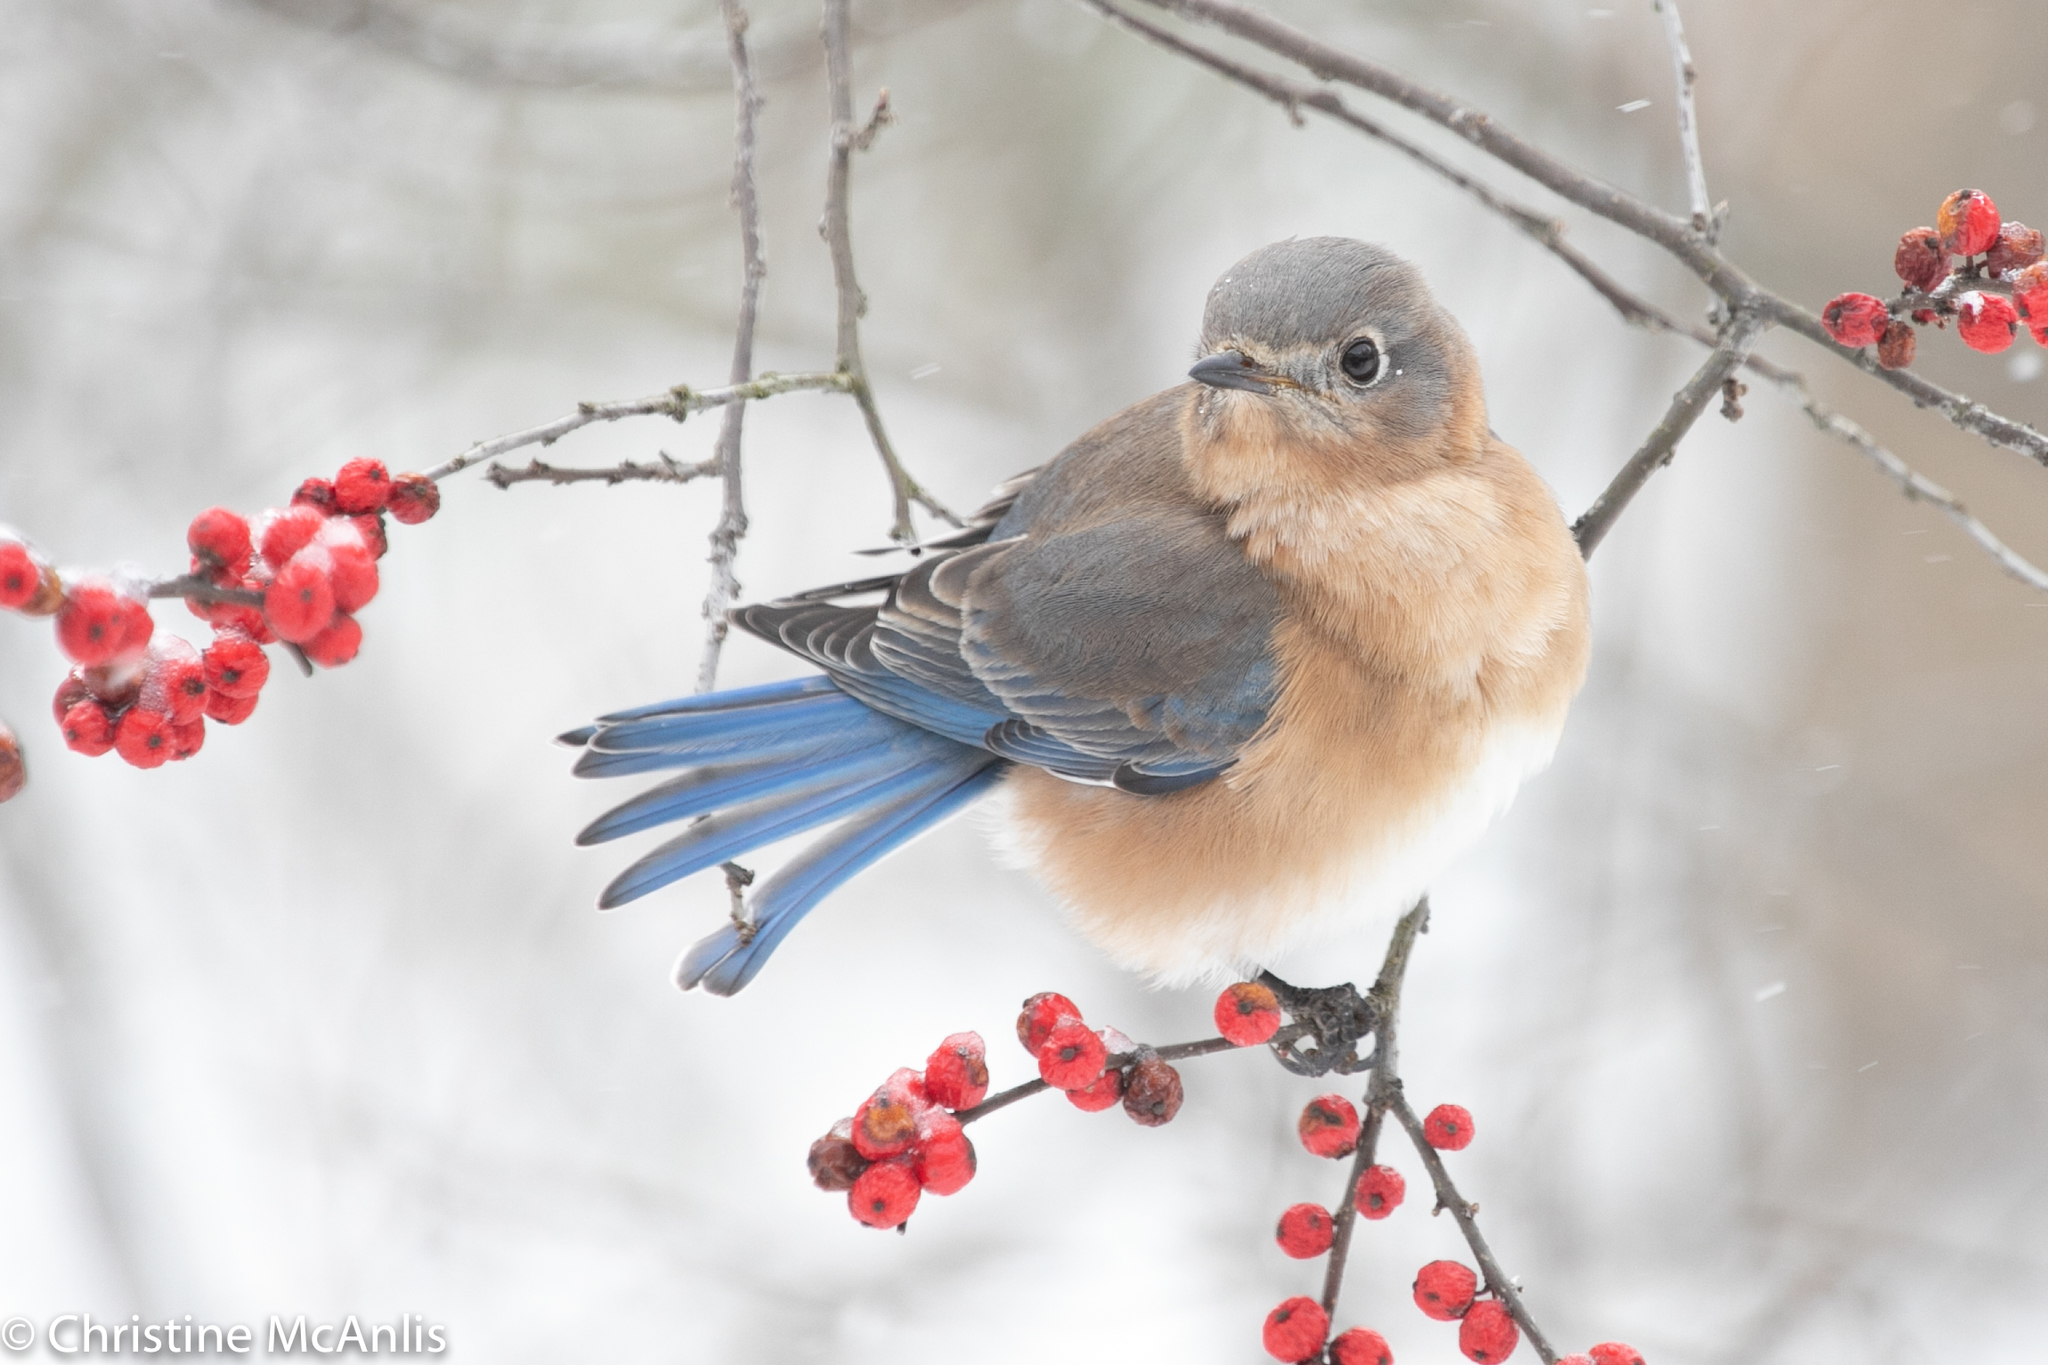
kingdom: Animalia
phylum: Chordata
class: Aves
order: Passeriformes
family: Turdidae
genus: Sialia
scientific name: Sialia sialis
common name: Eastern bluebird
